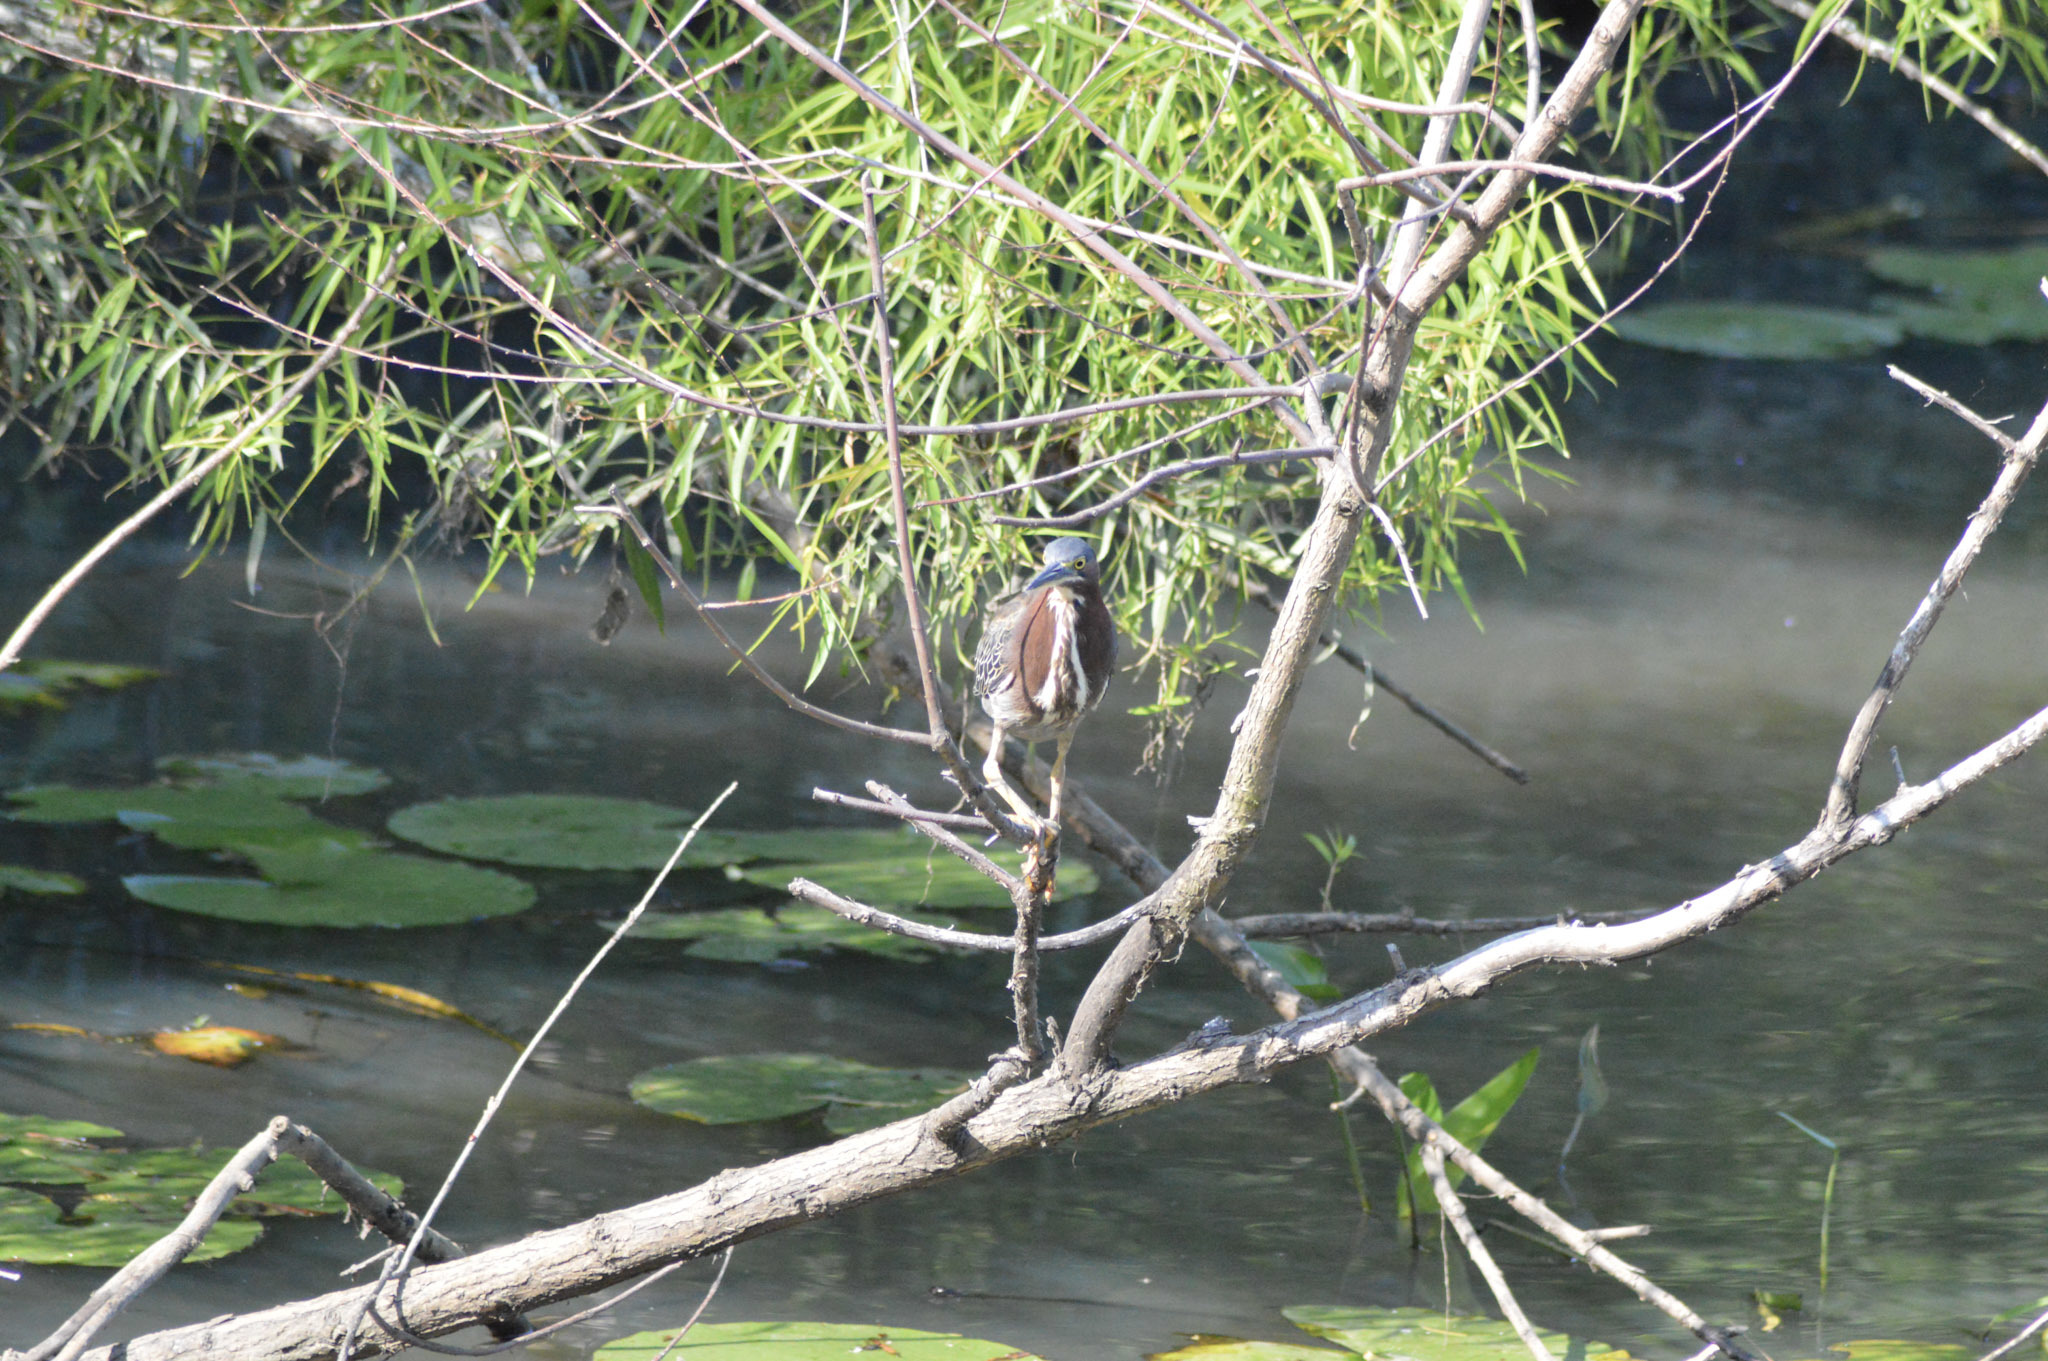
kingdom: Animalia
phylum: Chordata
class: Aves
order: Pelecaniformes
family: Ardeidae
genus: Butorides
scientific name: Butorides virescens
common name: Green heron
